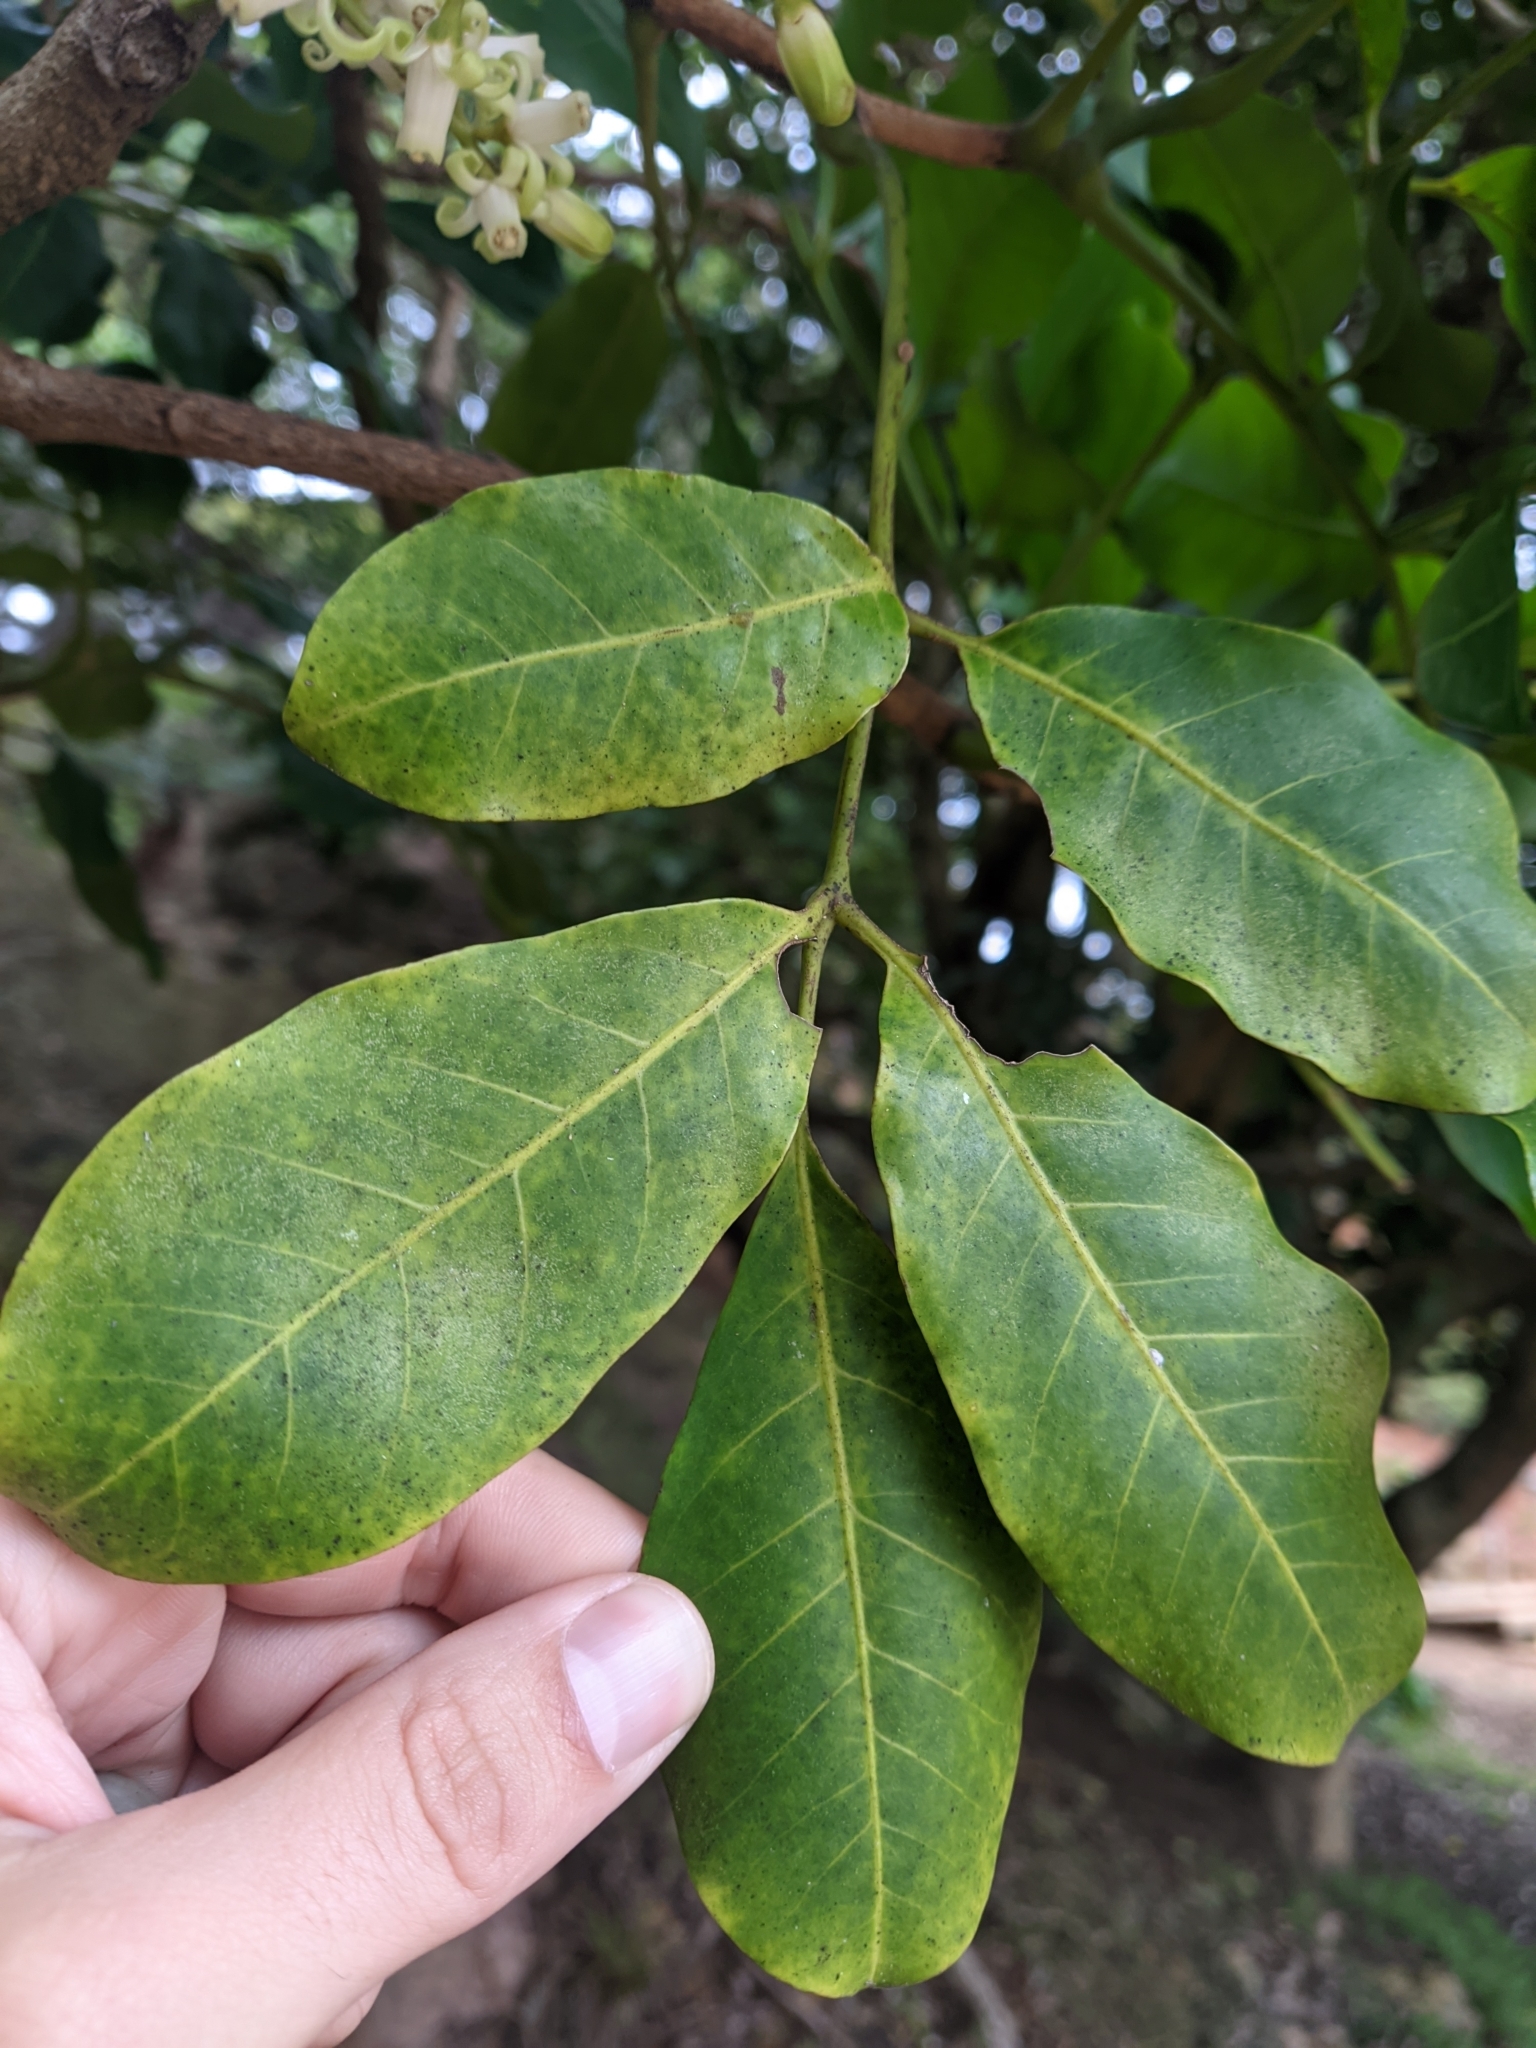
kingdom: Plantae
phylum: Tracheophyta
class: Magnoliopsida
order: Sapindales
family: Meliaceae
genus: Didymocheton
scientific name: Didymocheton spectabilis
